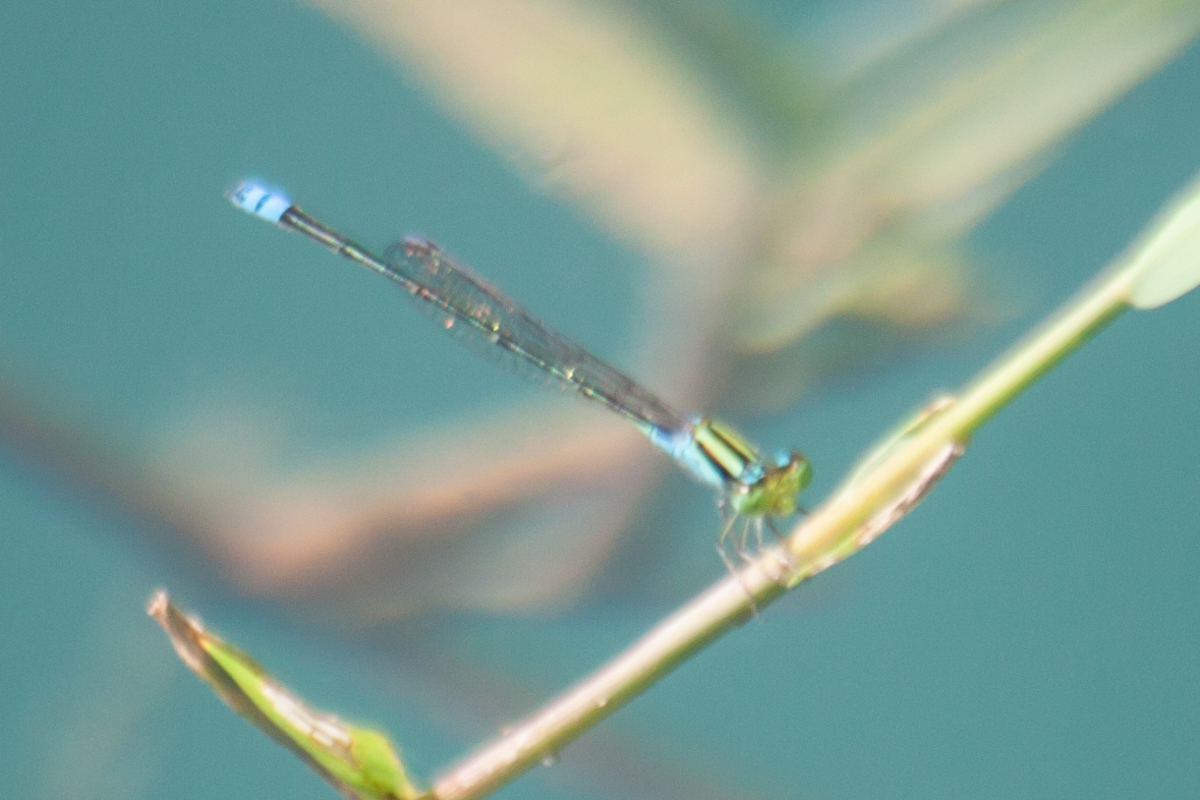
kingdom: Animalia
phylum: Arthropoda
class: Insecta
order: Odonata
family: Coenagrionidae
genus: Pseudagrion
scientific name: Pseudagrion williamsoni
